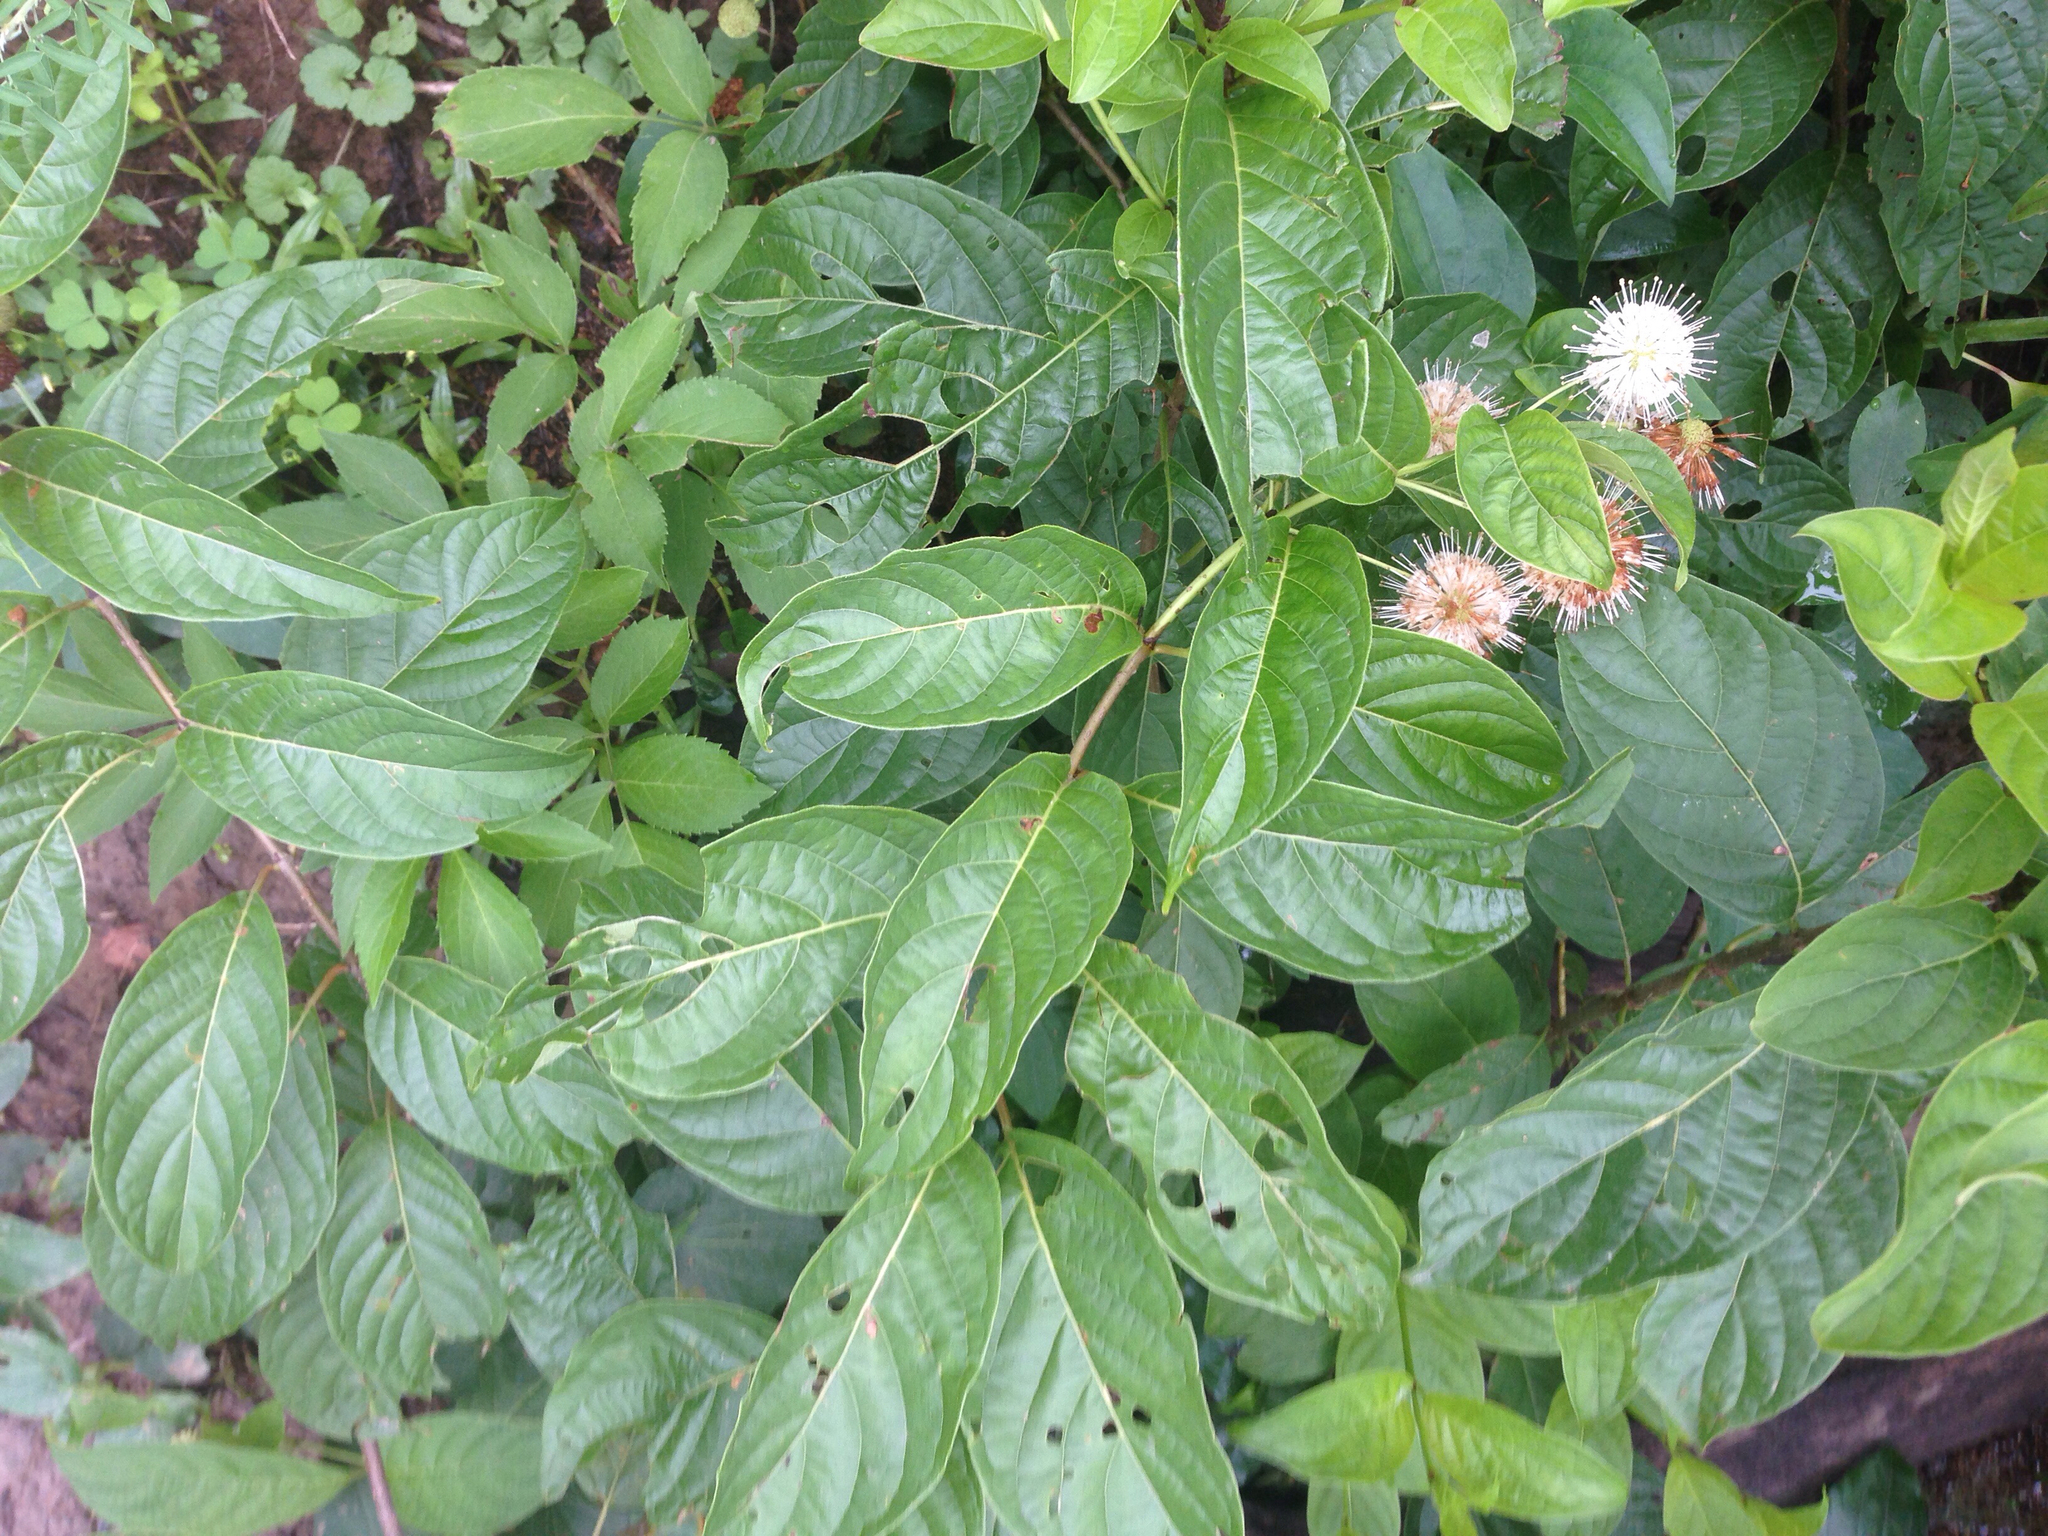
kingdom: Plantae
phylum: Tracheophyta
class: Magnoliopsida
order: Gentianales
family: Rubiaceae
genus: Cephalanthus
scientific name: Cephalanthus occidentalis
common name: Button-willow
